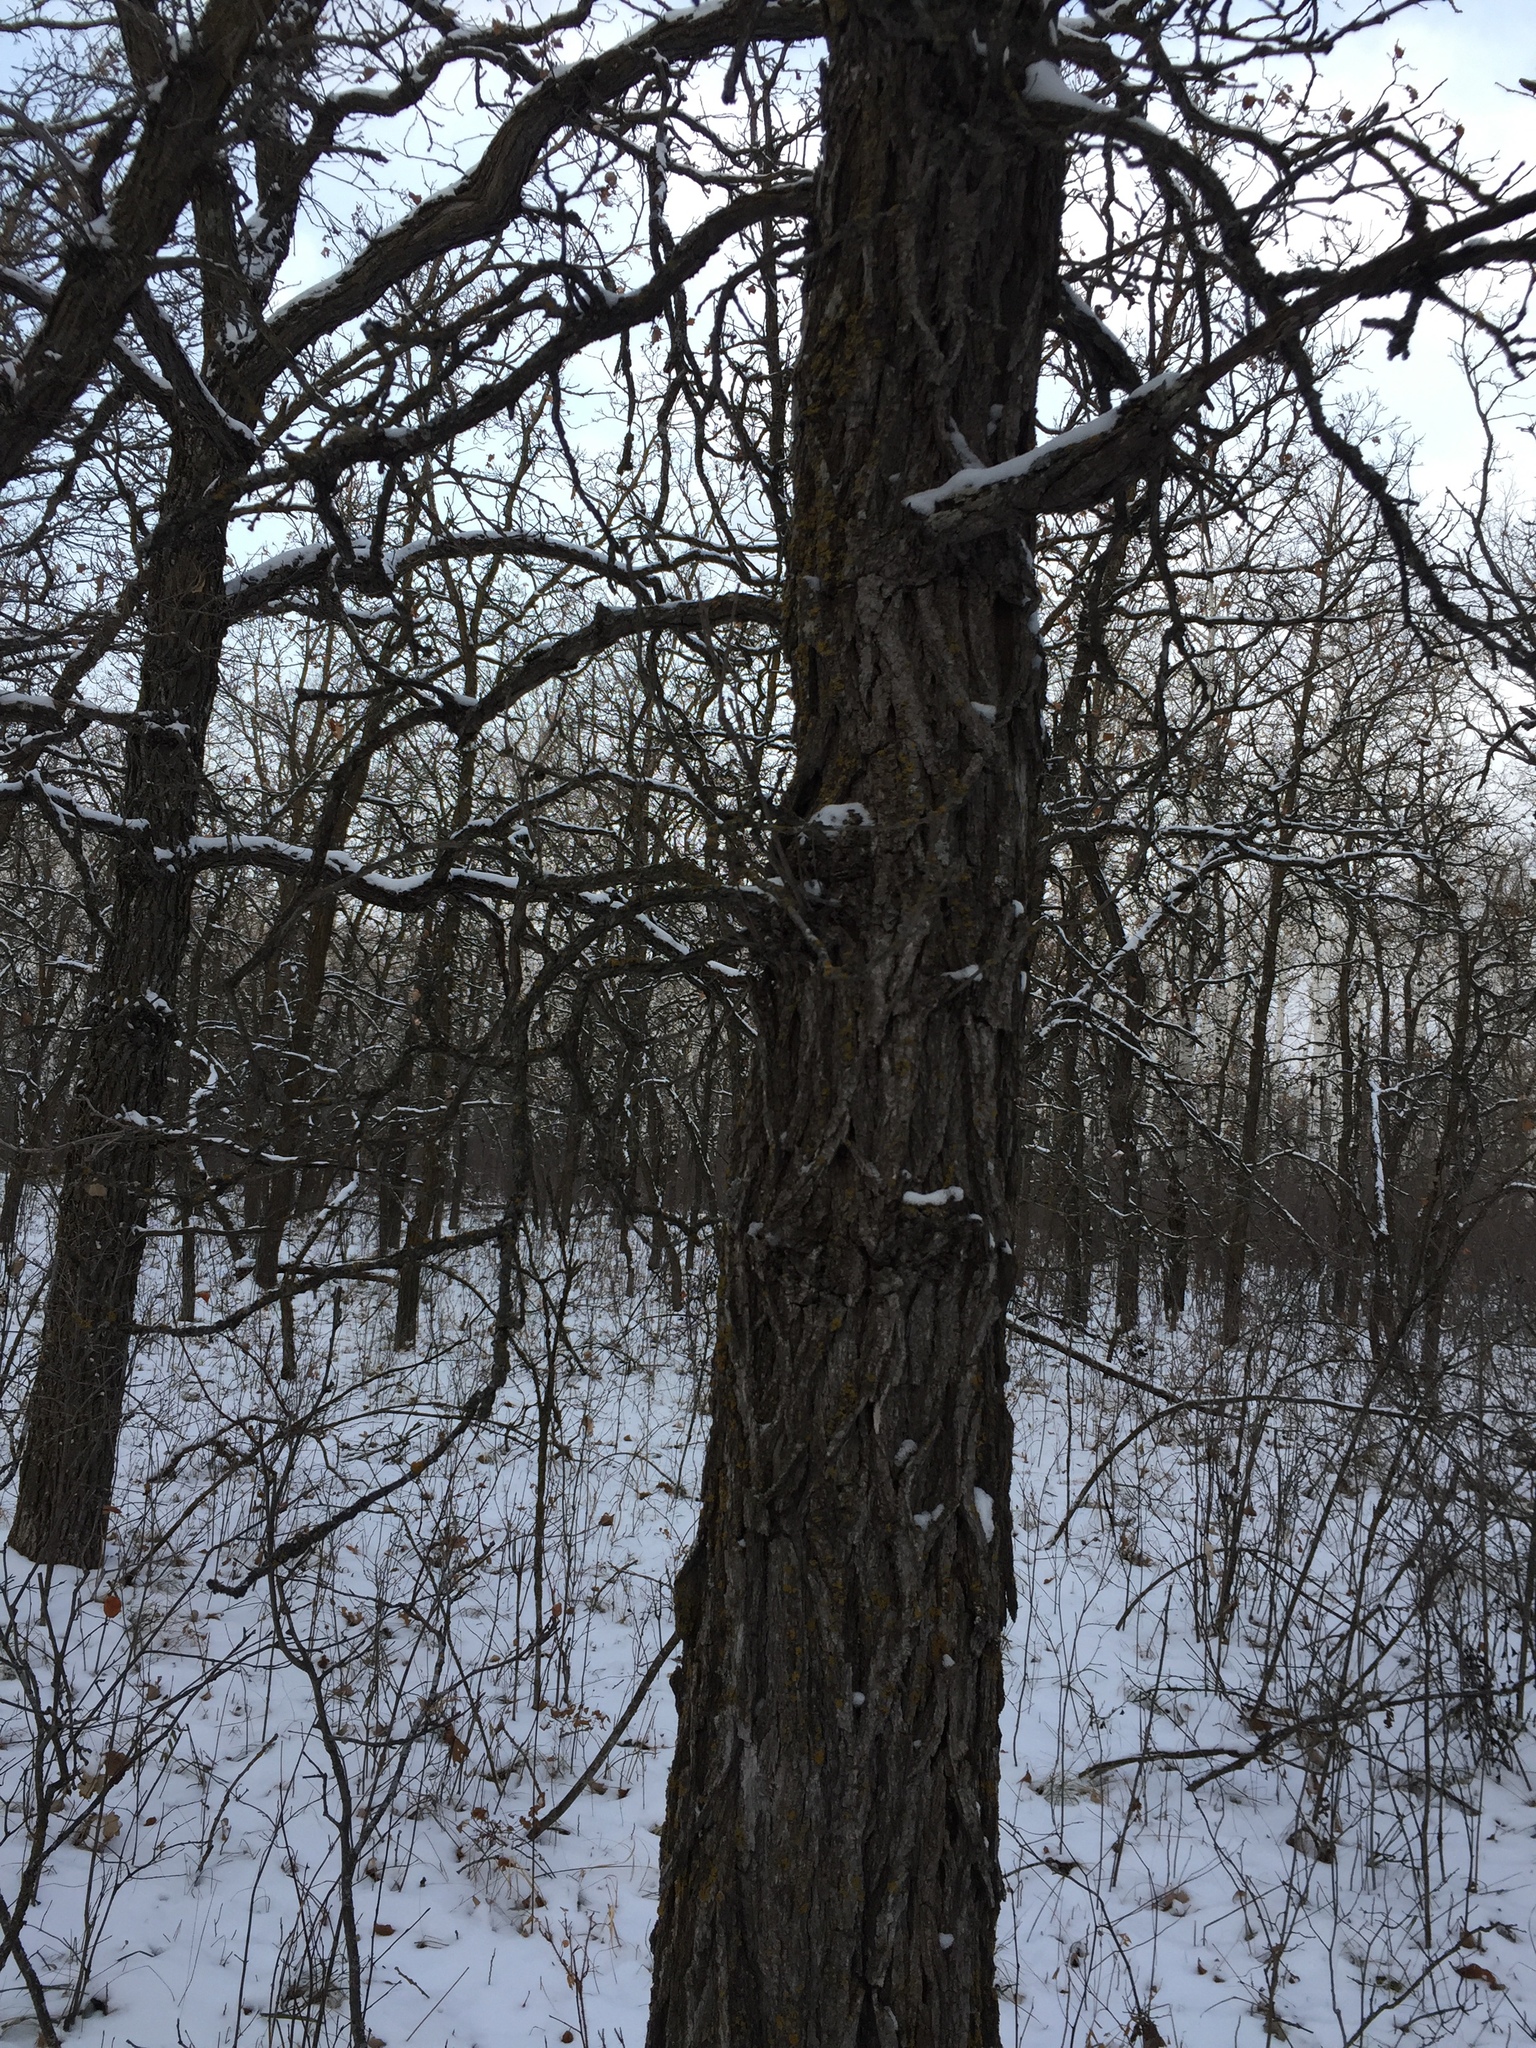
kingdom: Plantae
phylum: Tracheophyta
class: Magnoliopsida
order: Fagales
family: Fagaceae
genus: Quercus
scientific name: Quercus macrocarpa
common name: Bur oak
